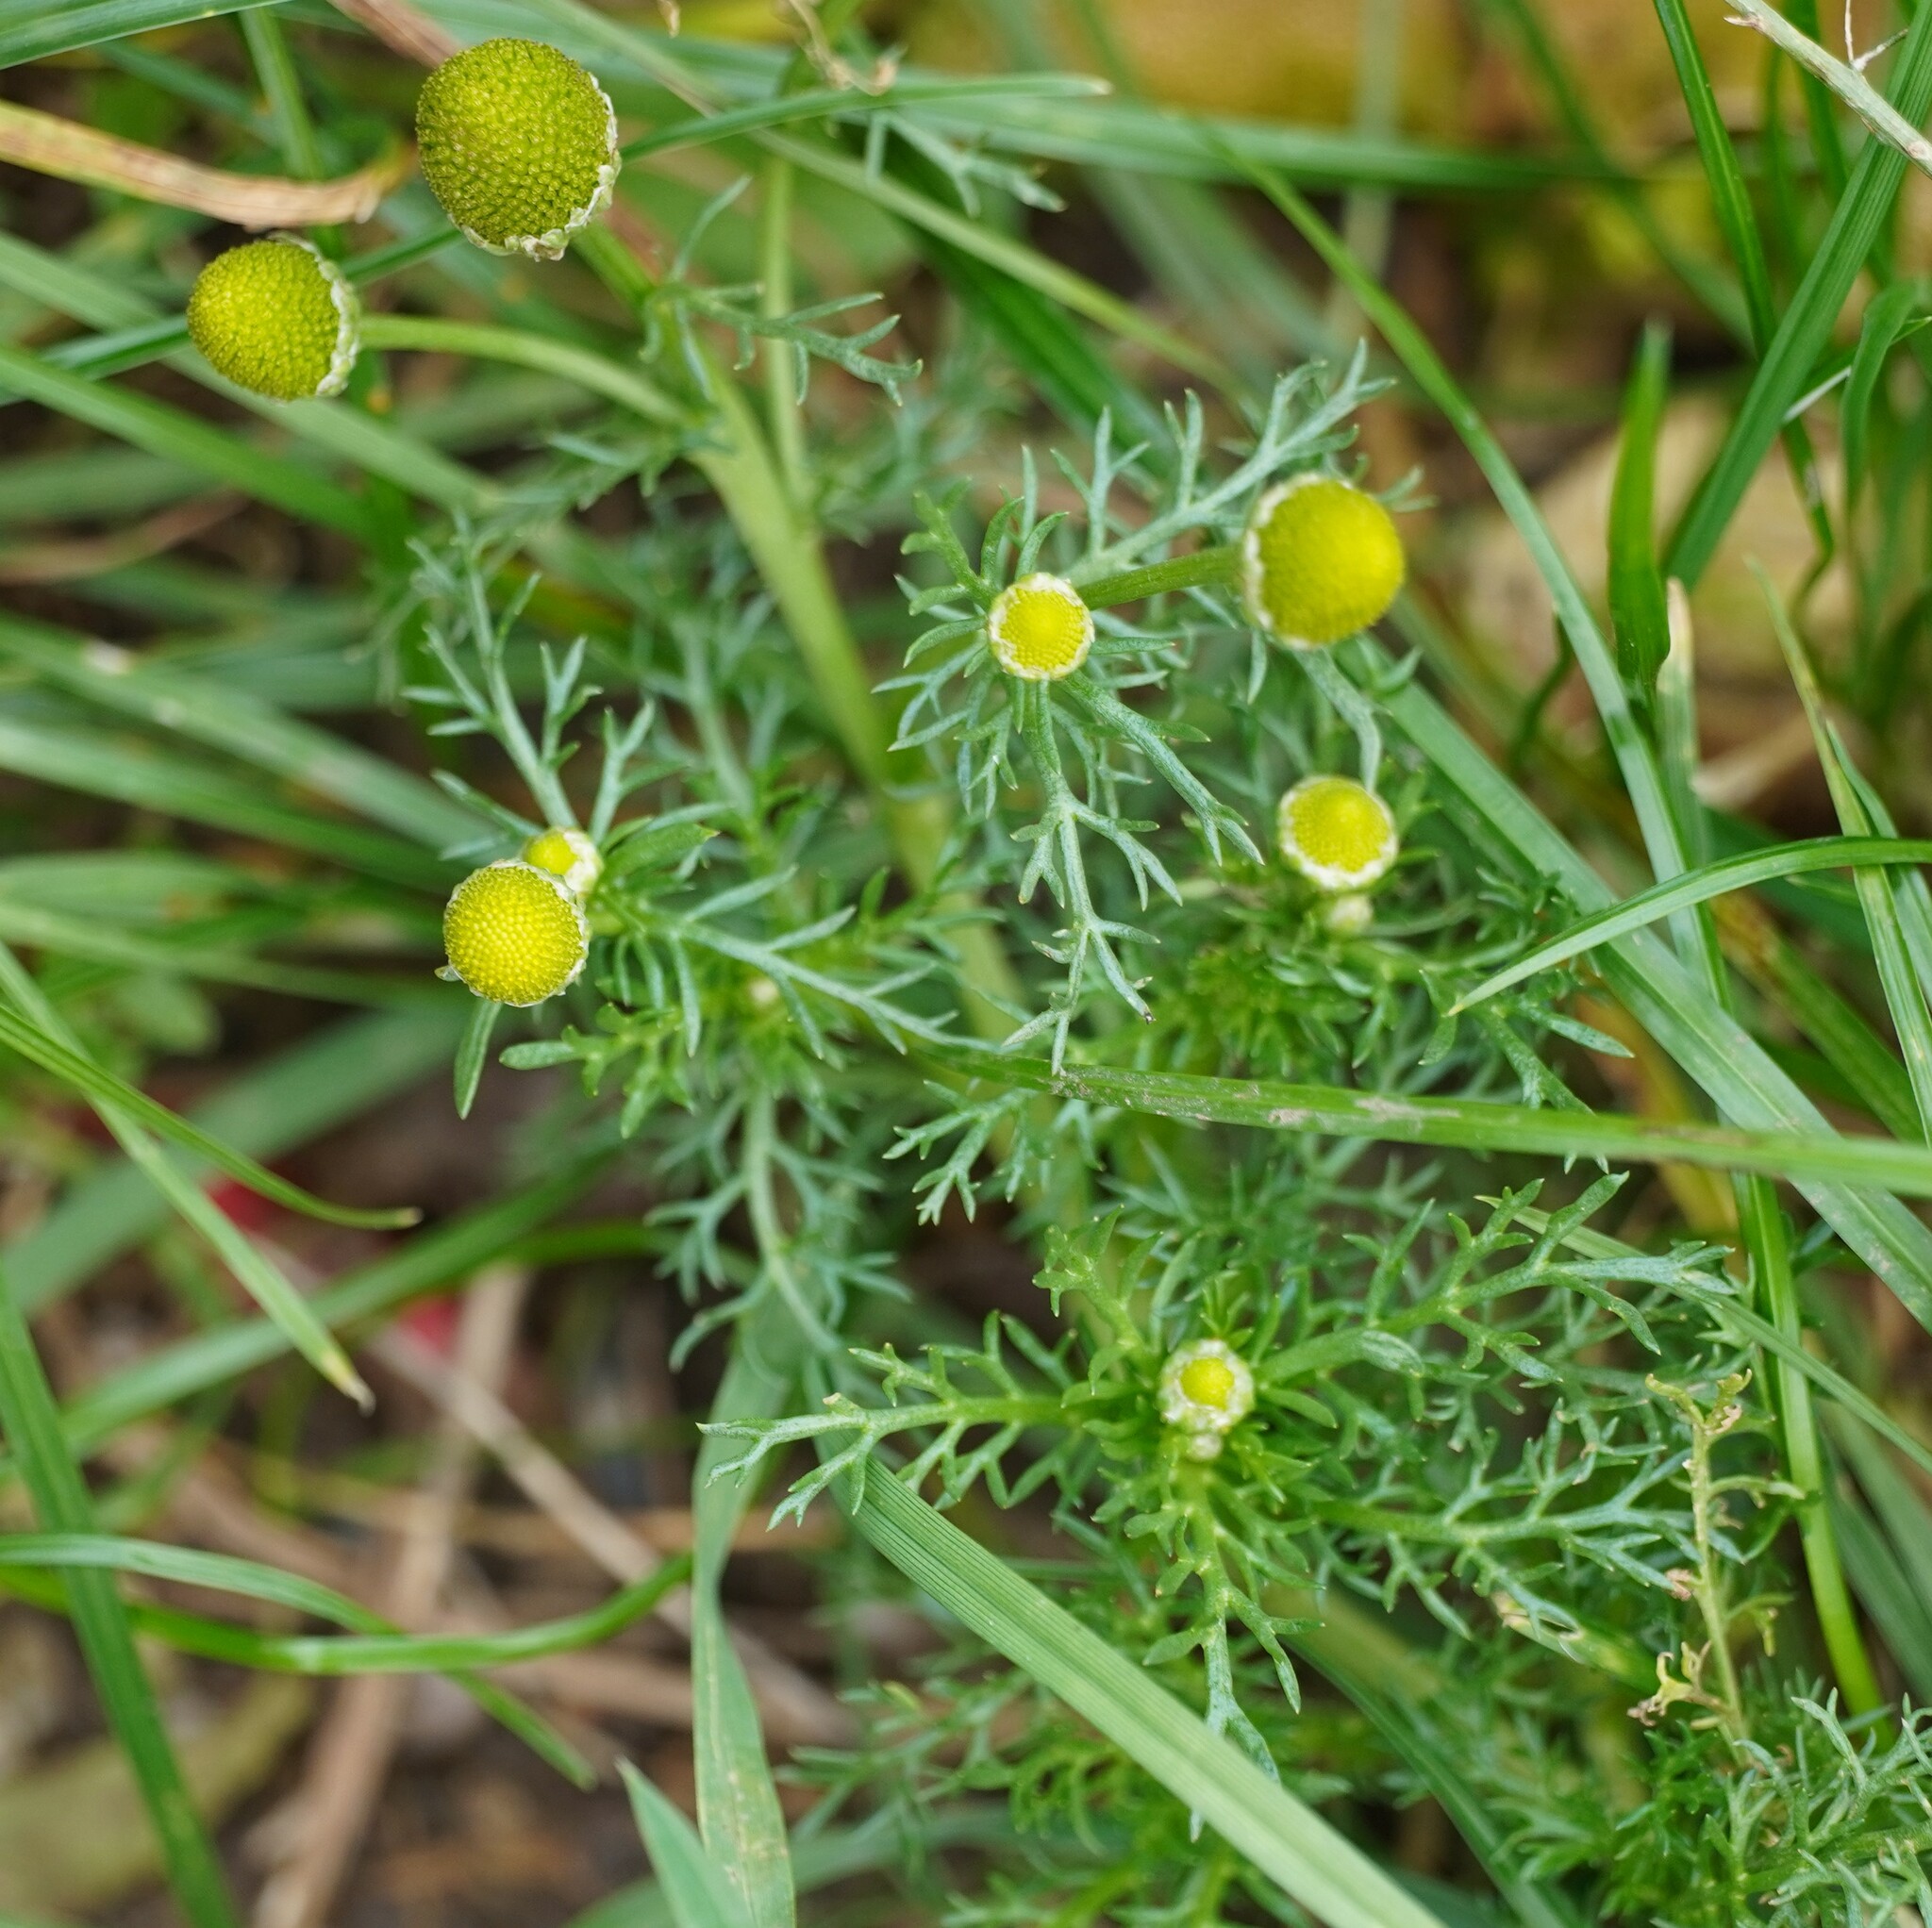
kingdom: Plantae
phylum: Tracheophyta
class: Magnoliopsida
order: Asterales
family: Asteraceae
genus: Matricaria
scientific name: Matricaria discoidea
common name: Disc mayweed
